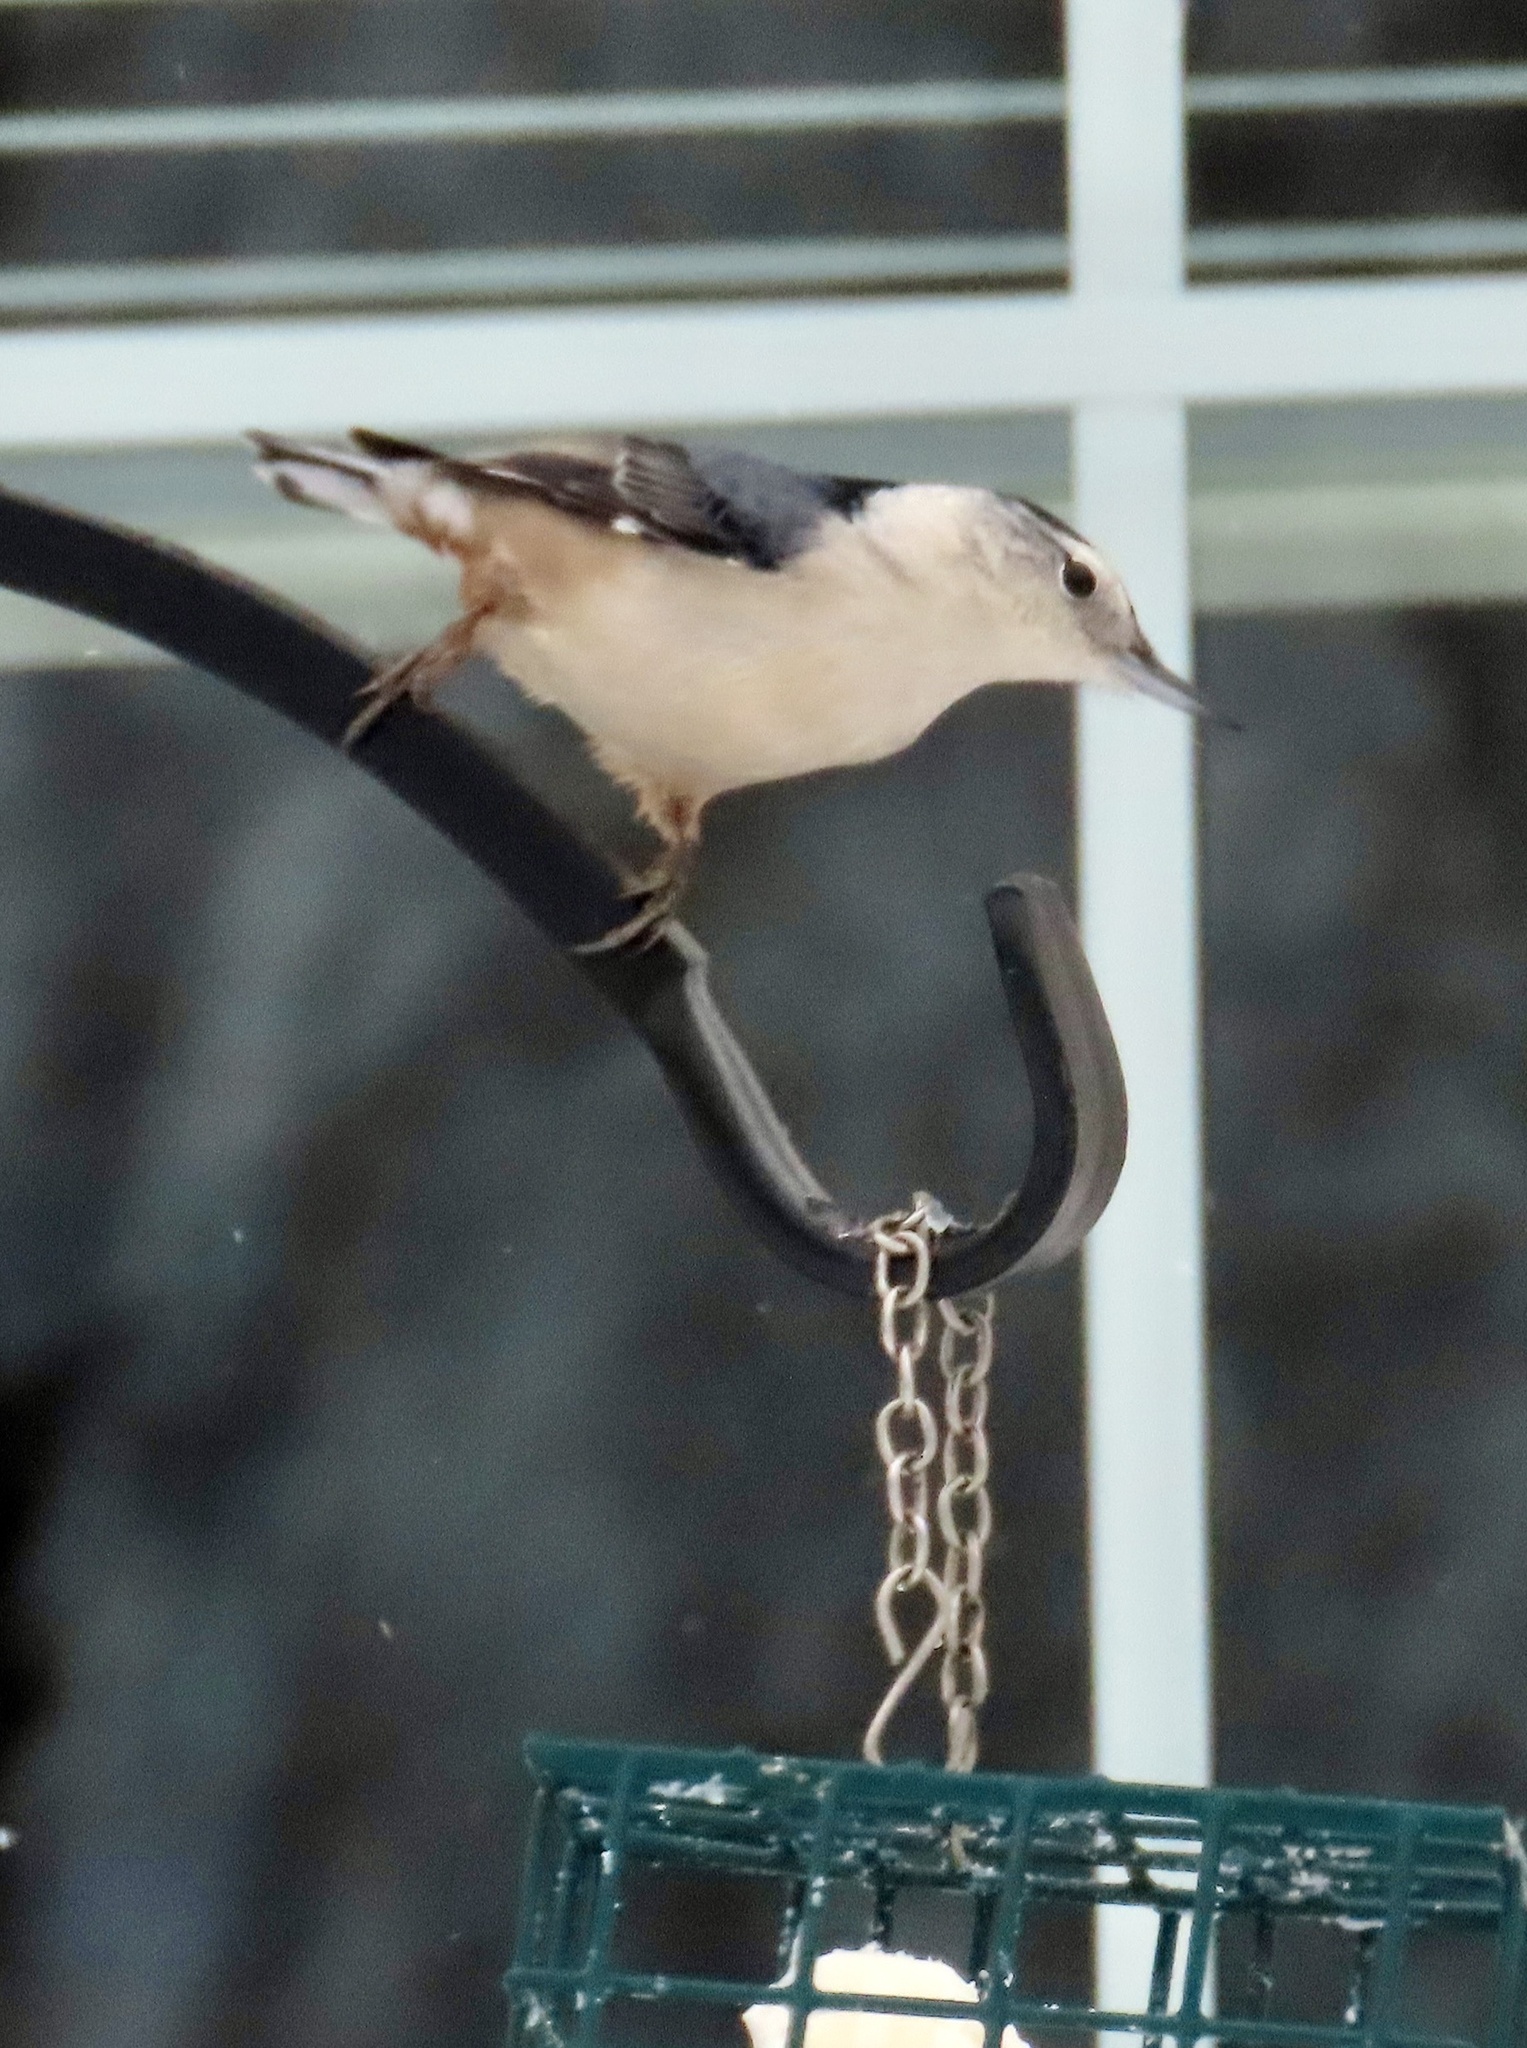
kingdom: Animalia
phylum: Chordata
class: Aves
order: Passeriformes
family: Sittidae
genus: Sitta
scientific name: Sitta carolinensis
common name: White-breasted nuthatch
